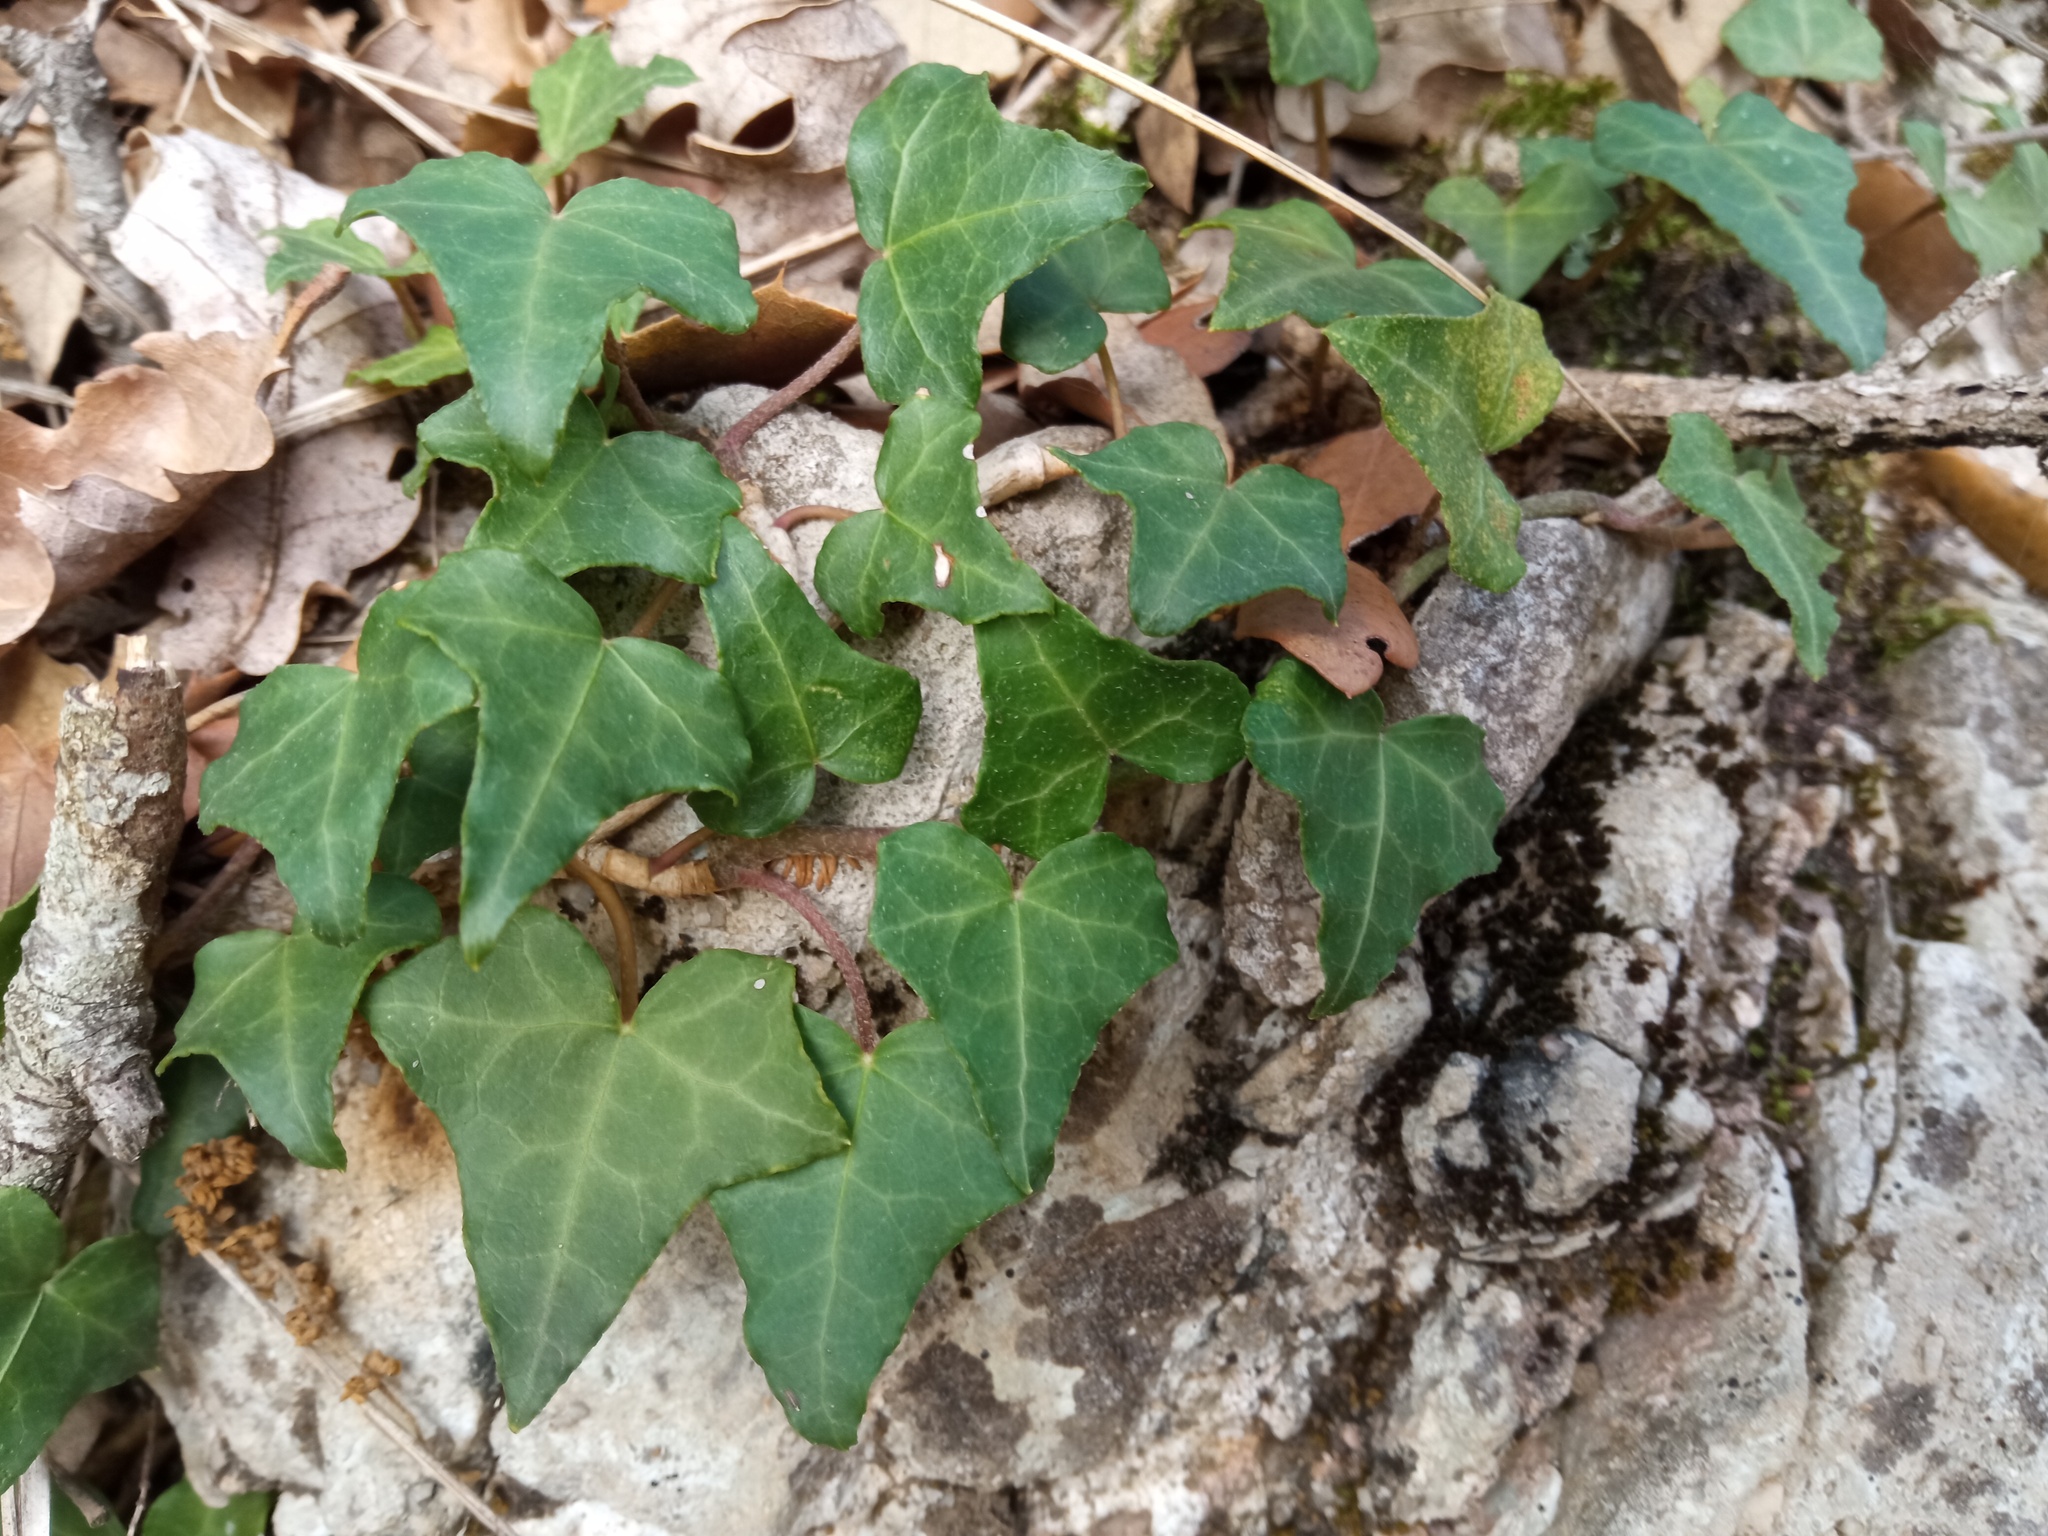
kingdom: Plantae
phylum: Tracheophyta
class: Magnoliopsida
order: Apiales
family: Araliaceae
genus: Hedera
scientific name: Hedera helix
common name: Ivy
